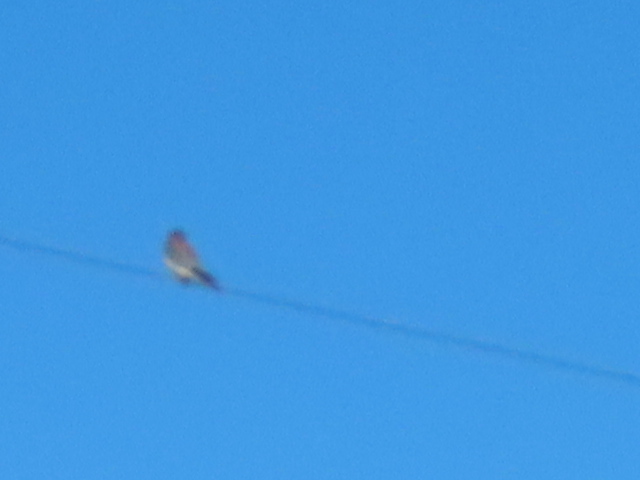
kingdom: Animalia
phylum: Chordata
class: Aves
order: Falconiformes
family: Falconidae
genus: Falco
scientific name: Falco sparverius
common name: American kestrel
